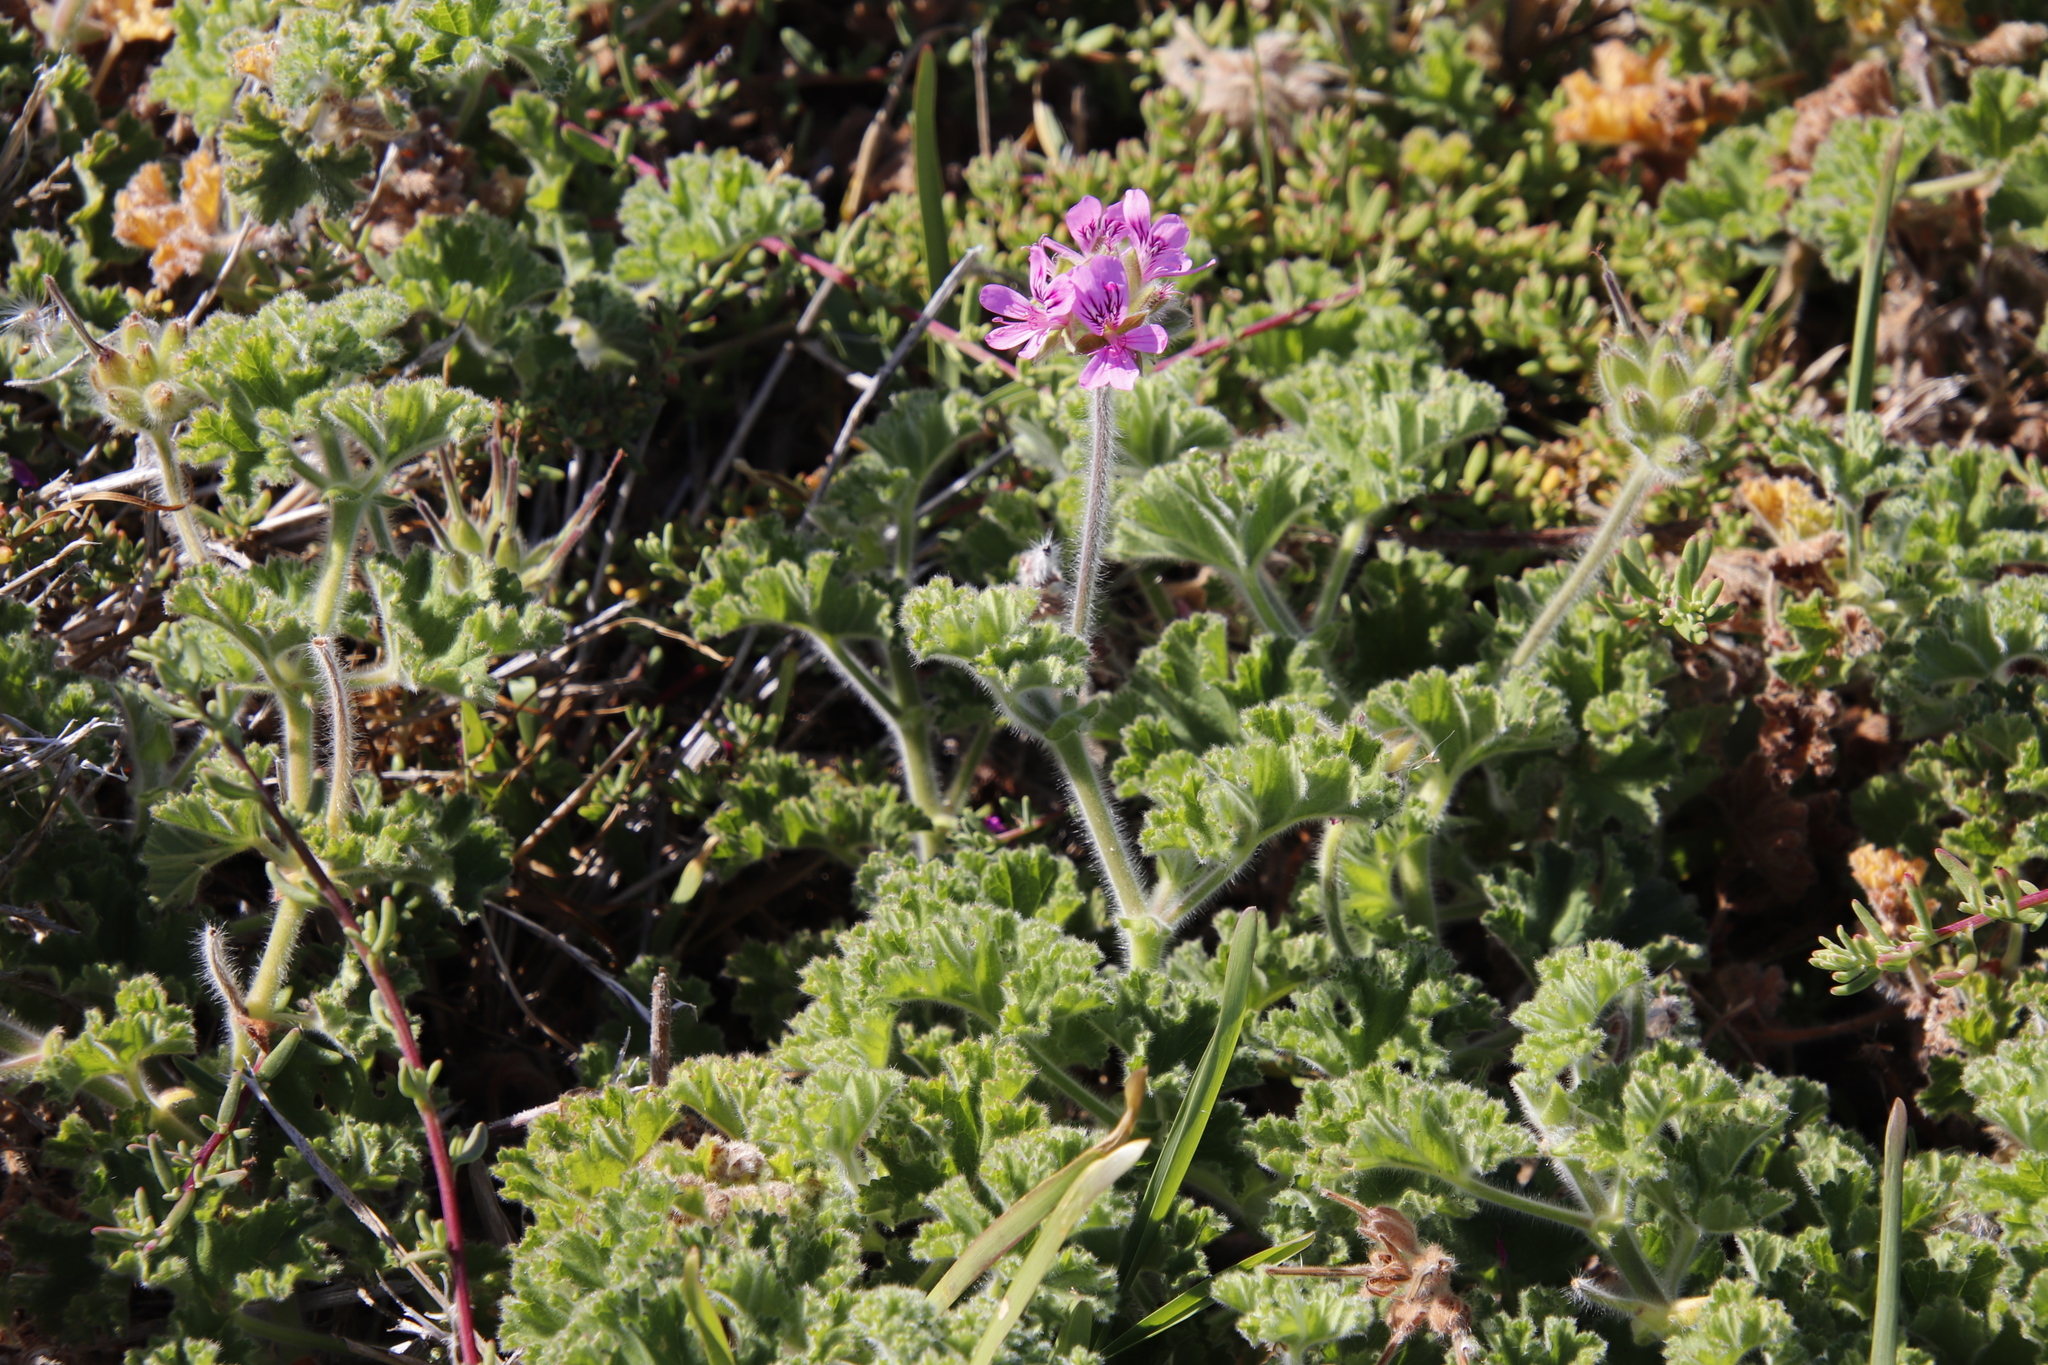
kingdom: Plantae
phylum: Tracheophyta
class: Magnoliopsida
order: Geraniales
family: Geraniaceae
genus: Pelargonium
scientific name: Pelargonium capitatum
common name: Rose scented geranium
